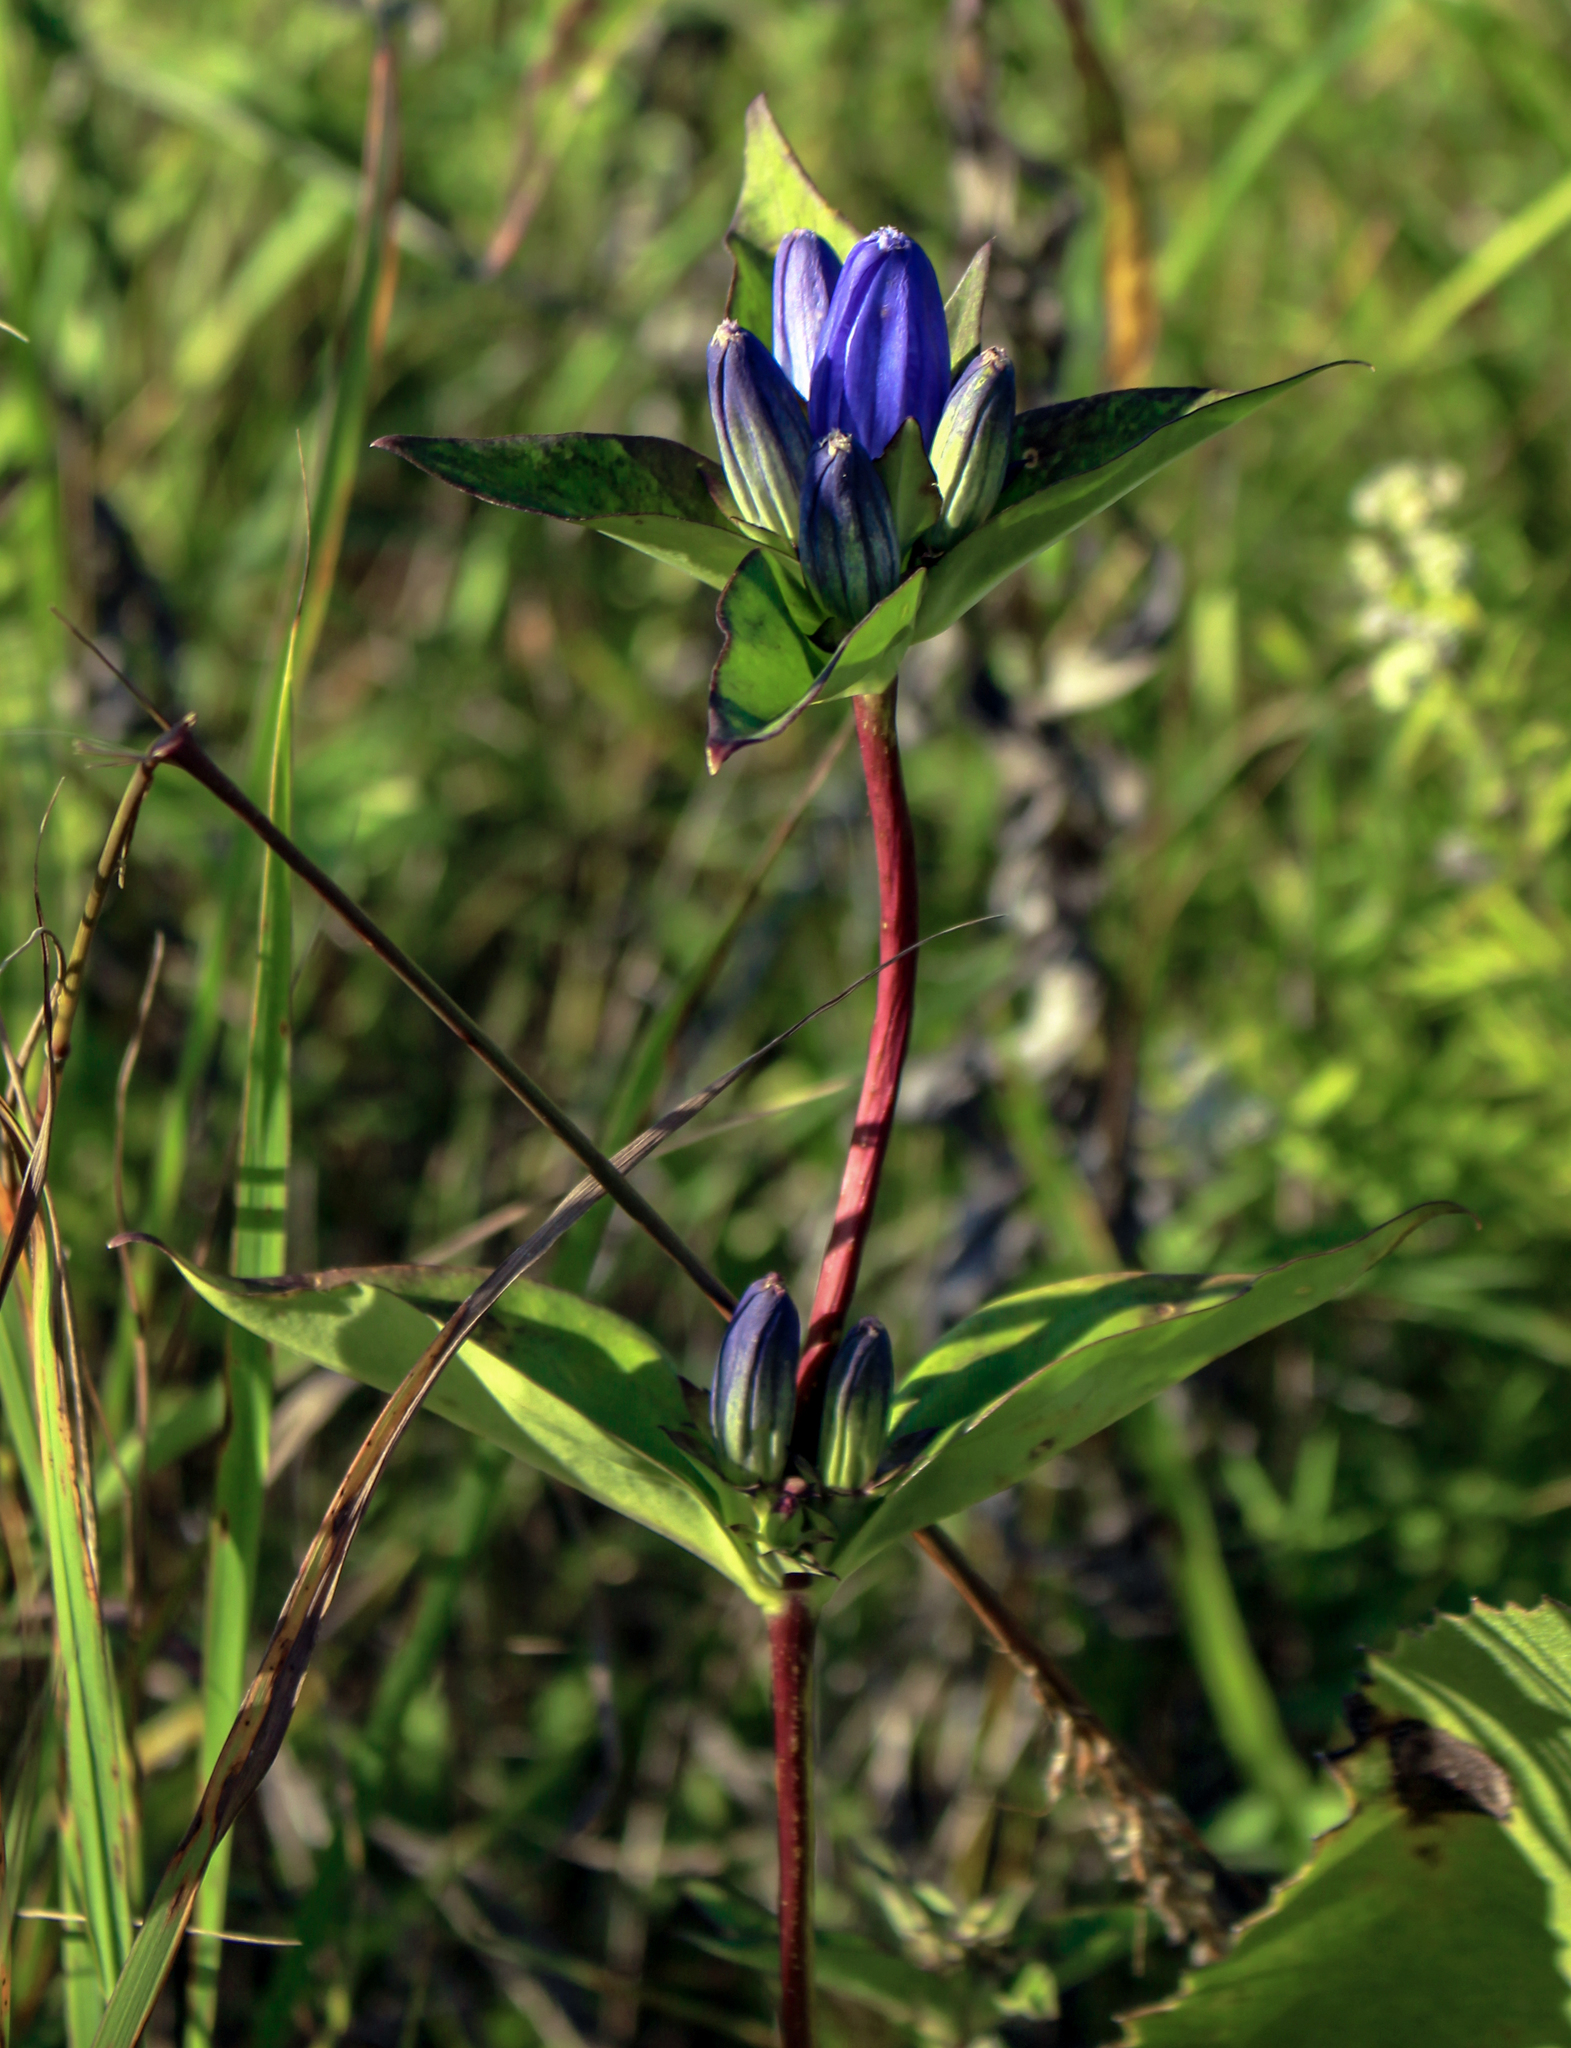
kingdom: Plantae
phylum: Tracheophyta
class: Magnoliopsida
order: Gentianales
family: Gentianaceae
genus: Gentiana
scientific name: Gentiana andrewsii
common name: Bottle gentian
